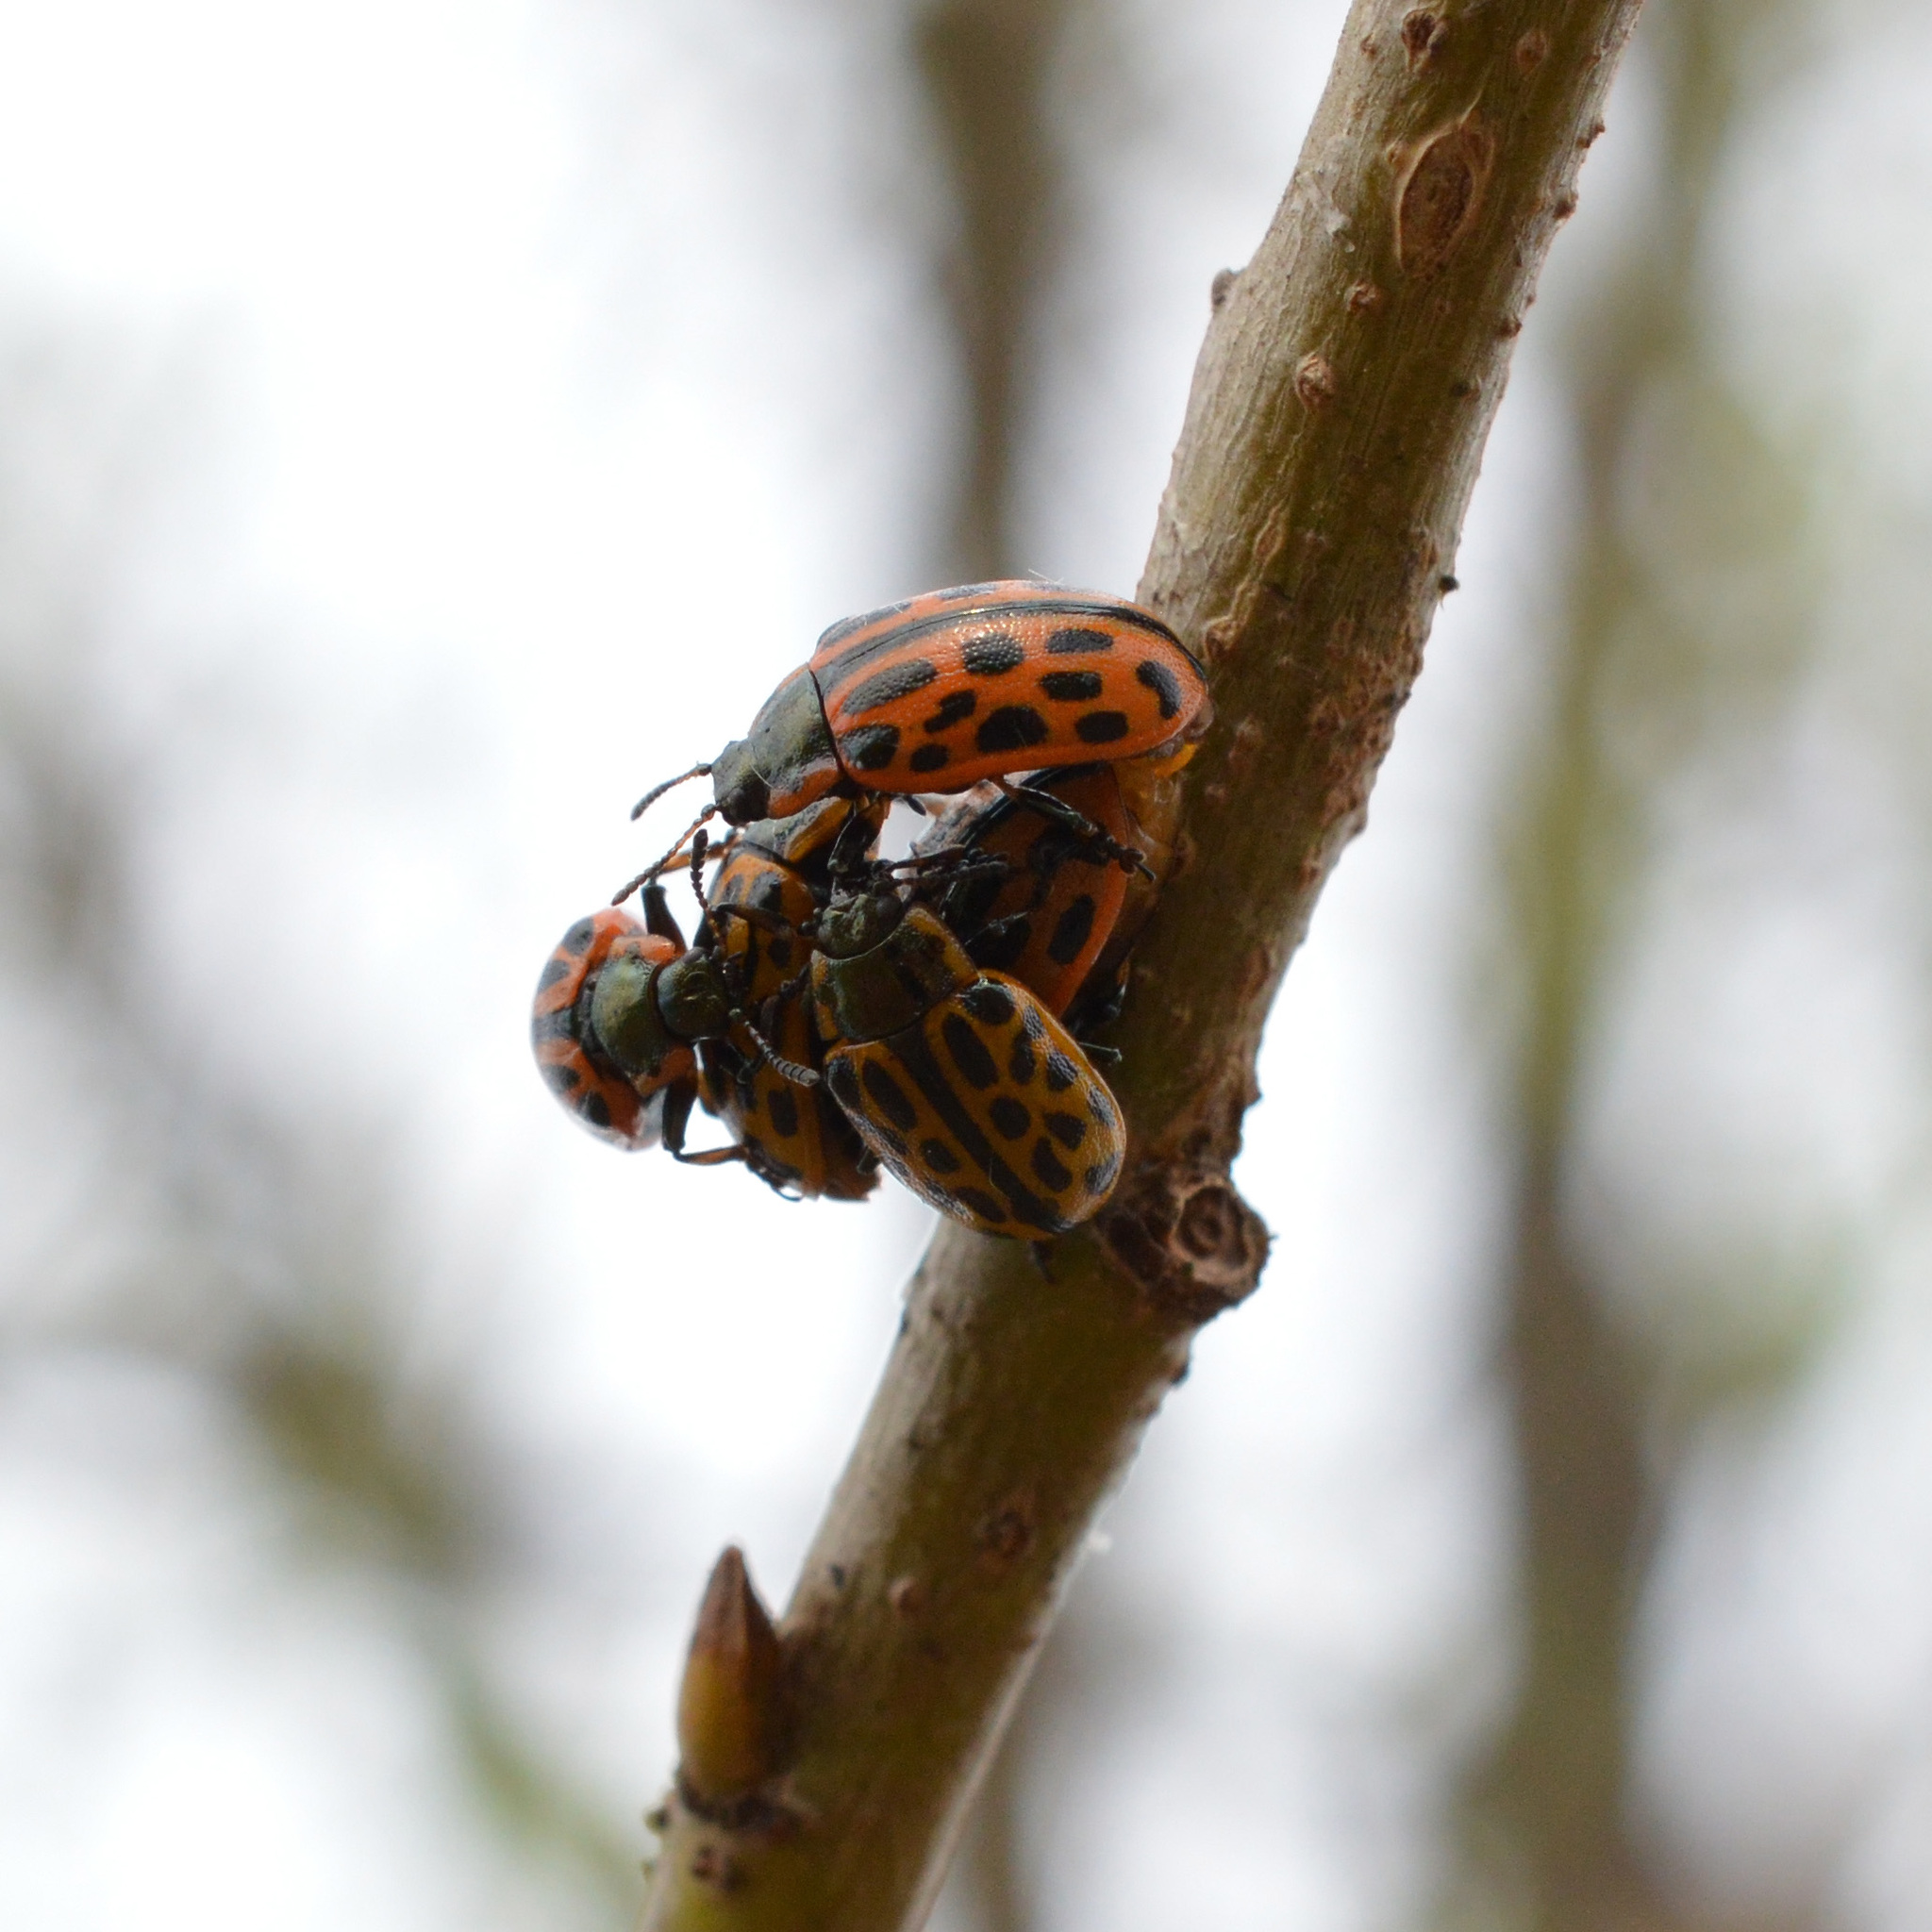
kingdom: Animalia
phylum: Arthropoda
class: Insecta
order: Coleoptera
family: Chrysomelidae
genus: Chrysomela
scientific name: Chrysomela vigintipunctata
